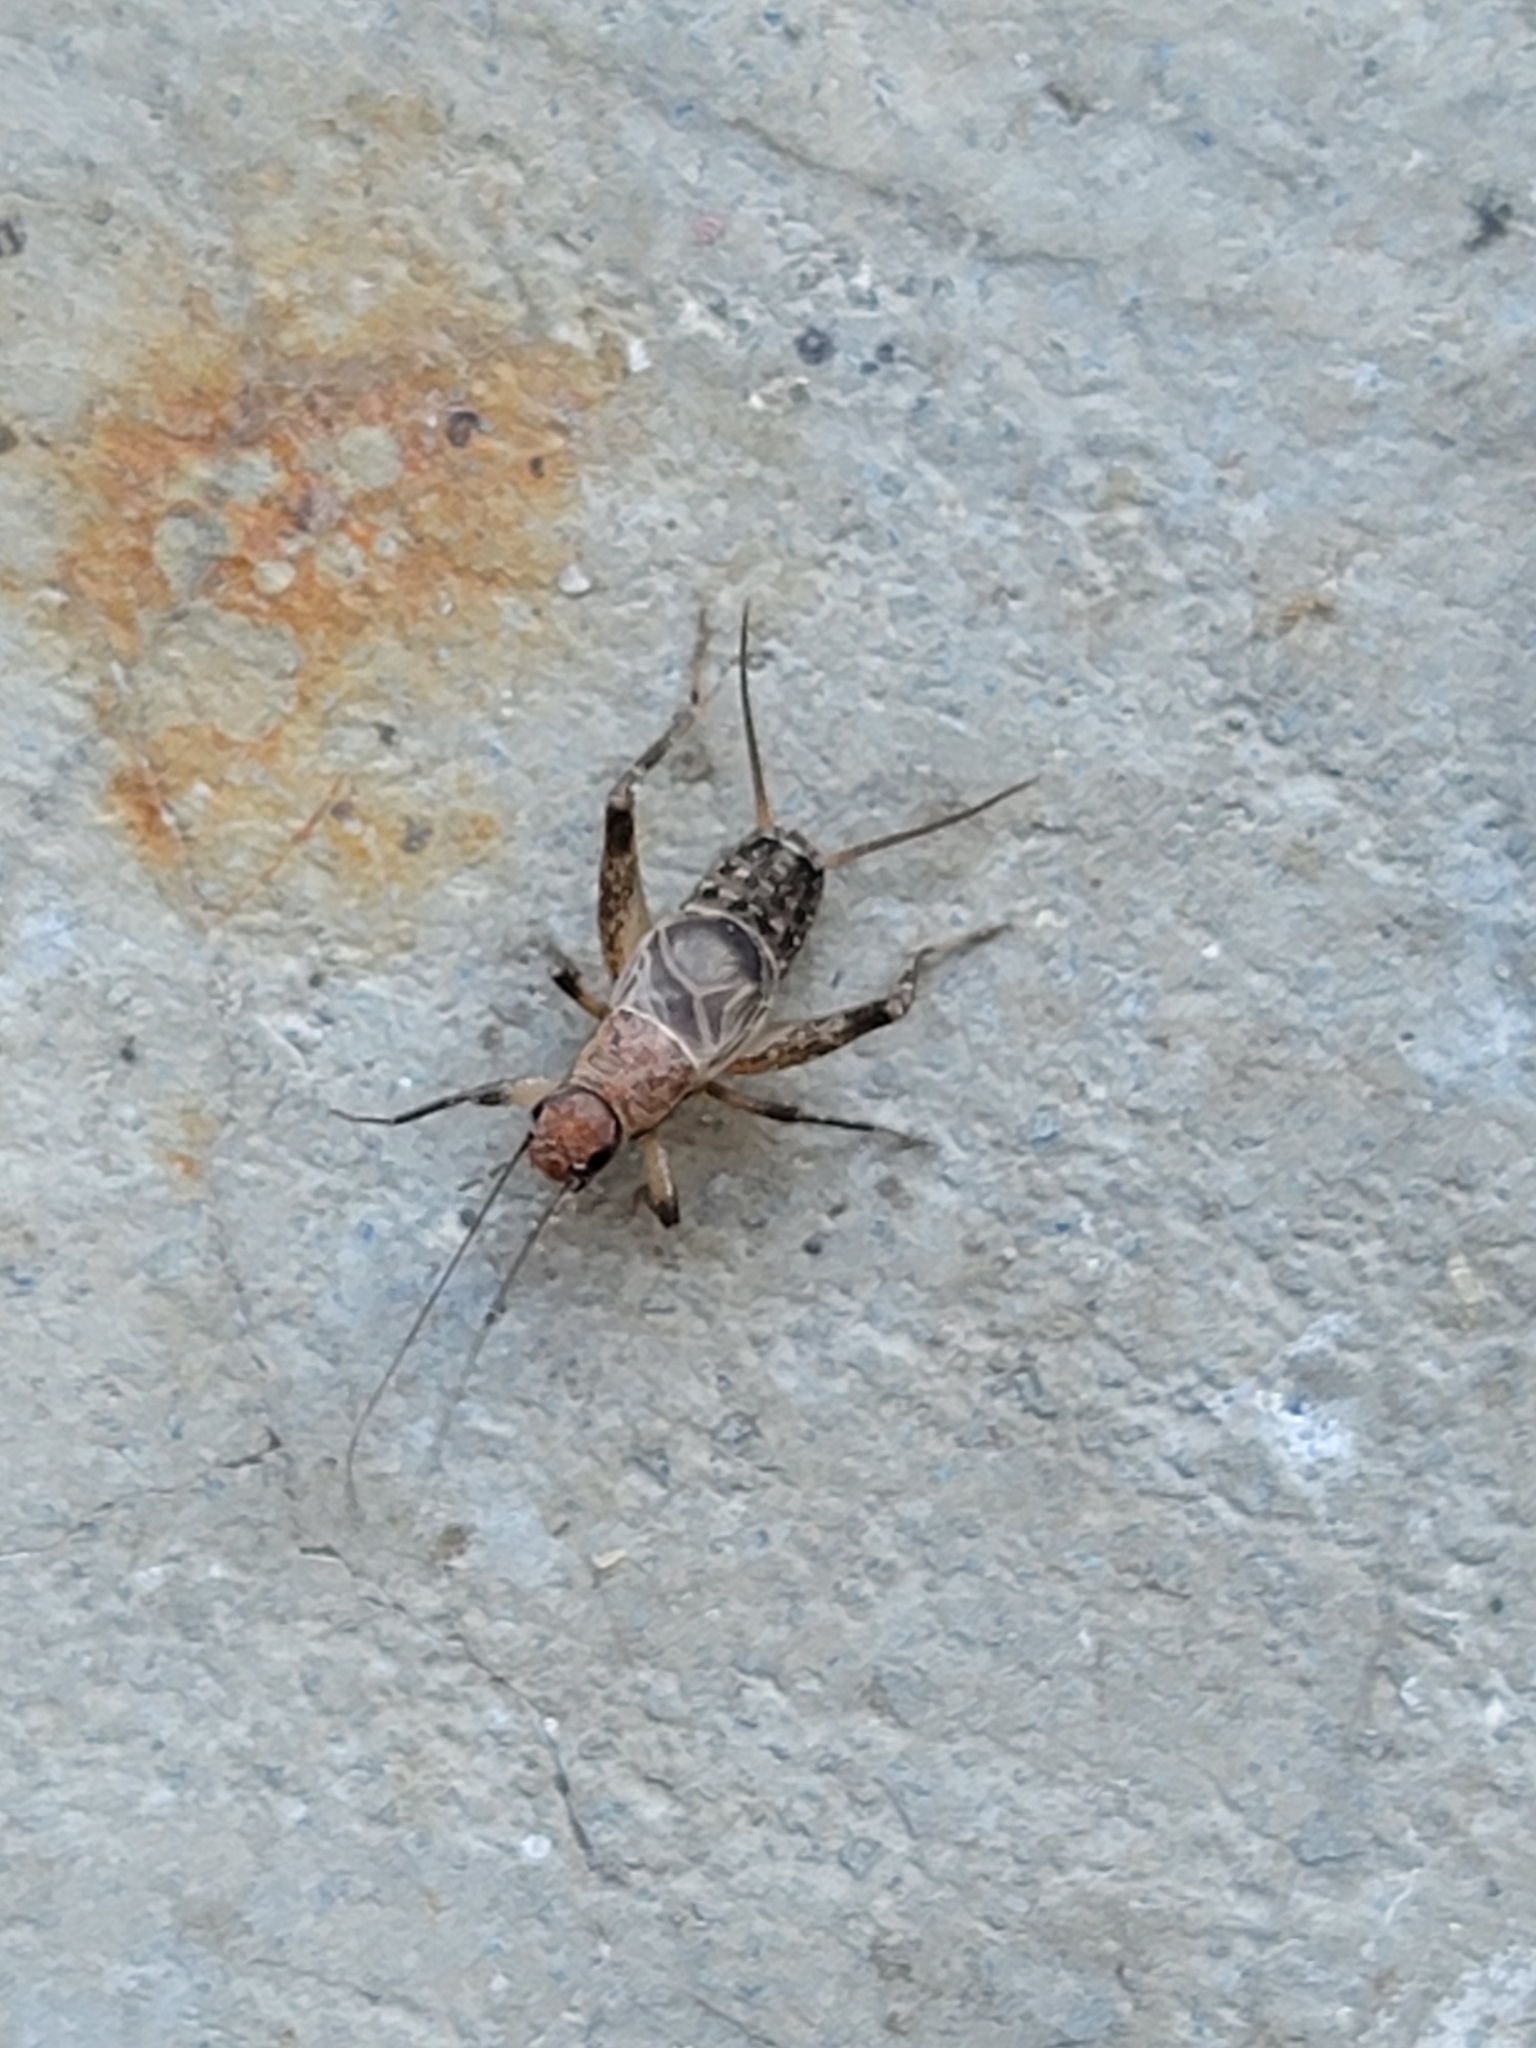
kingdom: Animalia
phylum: Arthropoda
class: Insecta
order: Orthoptera
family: Mogoplistidae
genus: Hoplosphyrum
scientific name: Hoplosphyrum boreale
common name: Long-winged scaly cricket
